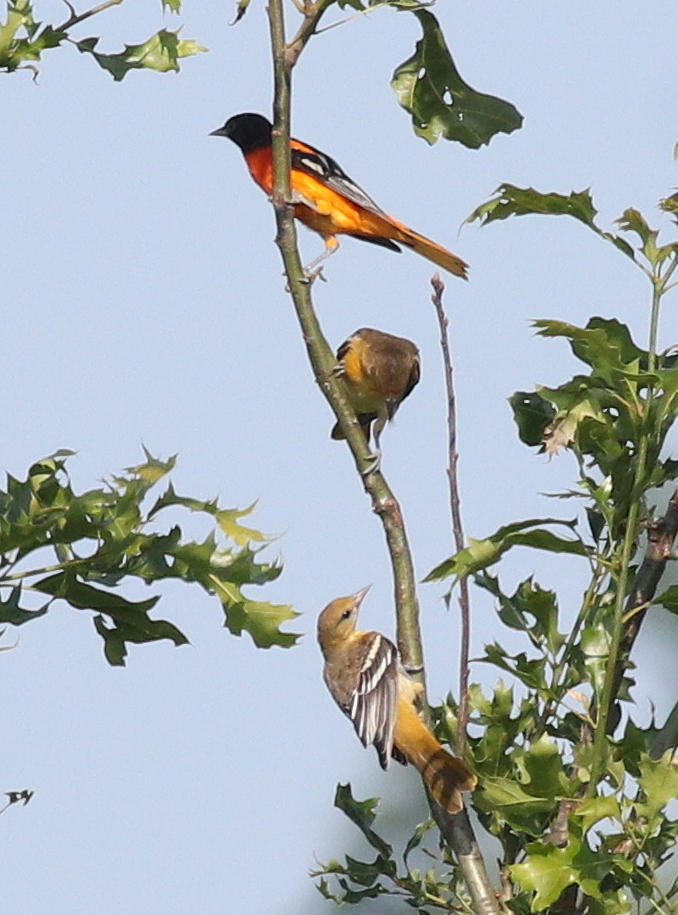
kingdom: Animalia
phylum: Chordata
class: Aves
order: Passeriformes
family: Icteridae
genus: Icterus
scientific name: Icterus galbula
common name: Baltimore oriole
